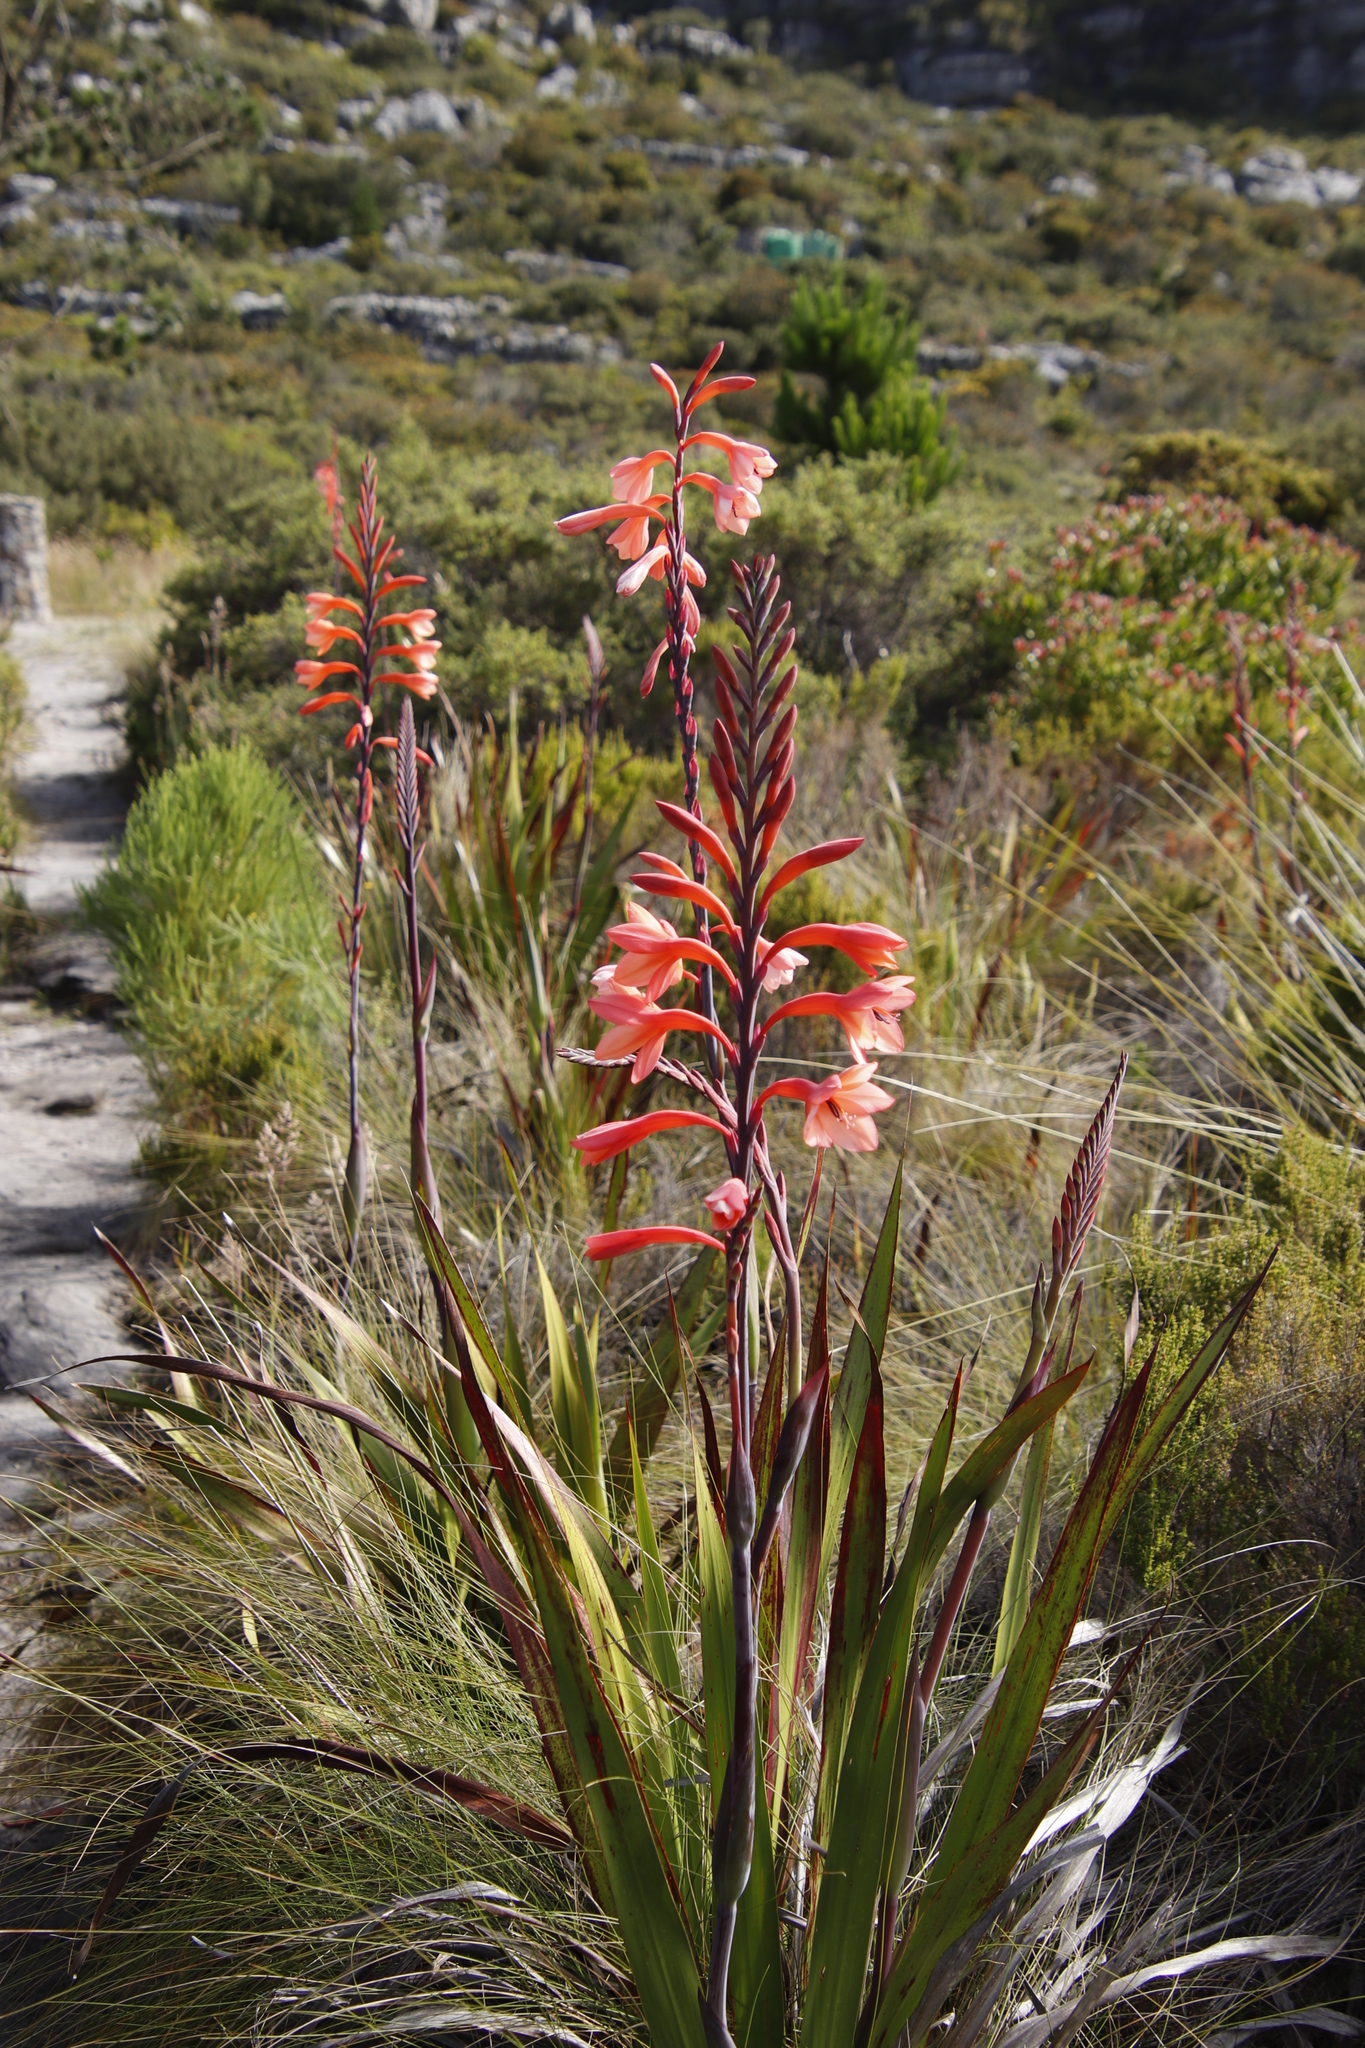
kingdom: Plantae
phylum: Tracheophyta
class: Liliopsida
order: Asparagales
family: Iridaceae
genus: Watsonia
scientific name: Watsonia tabularis
